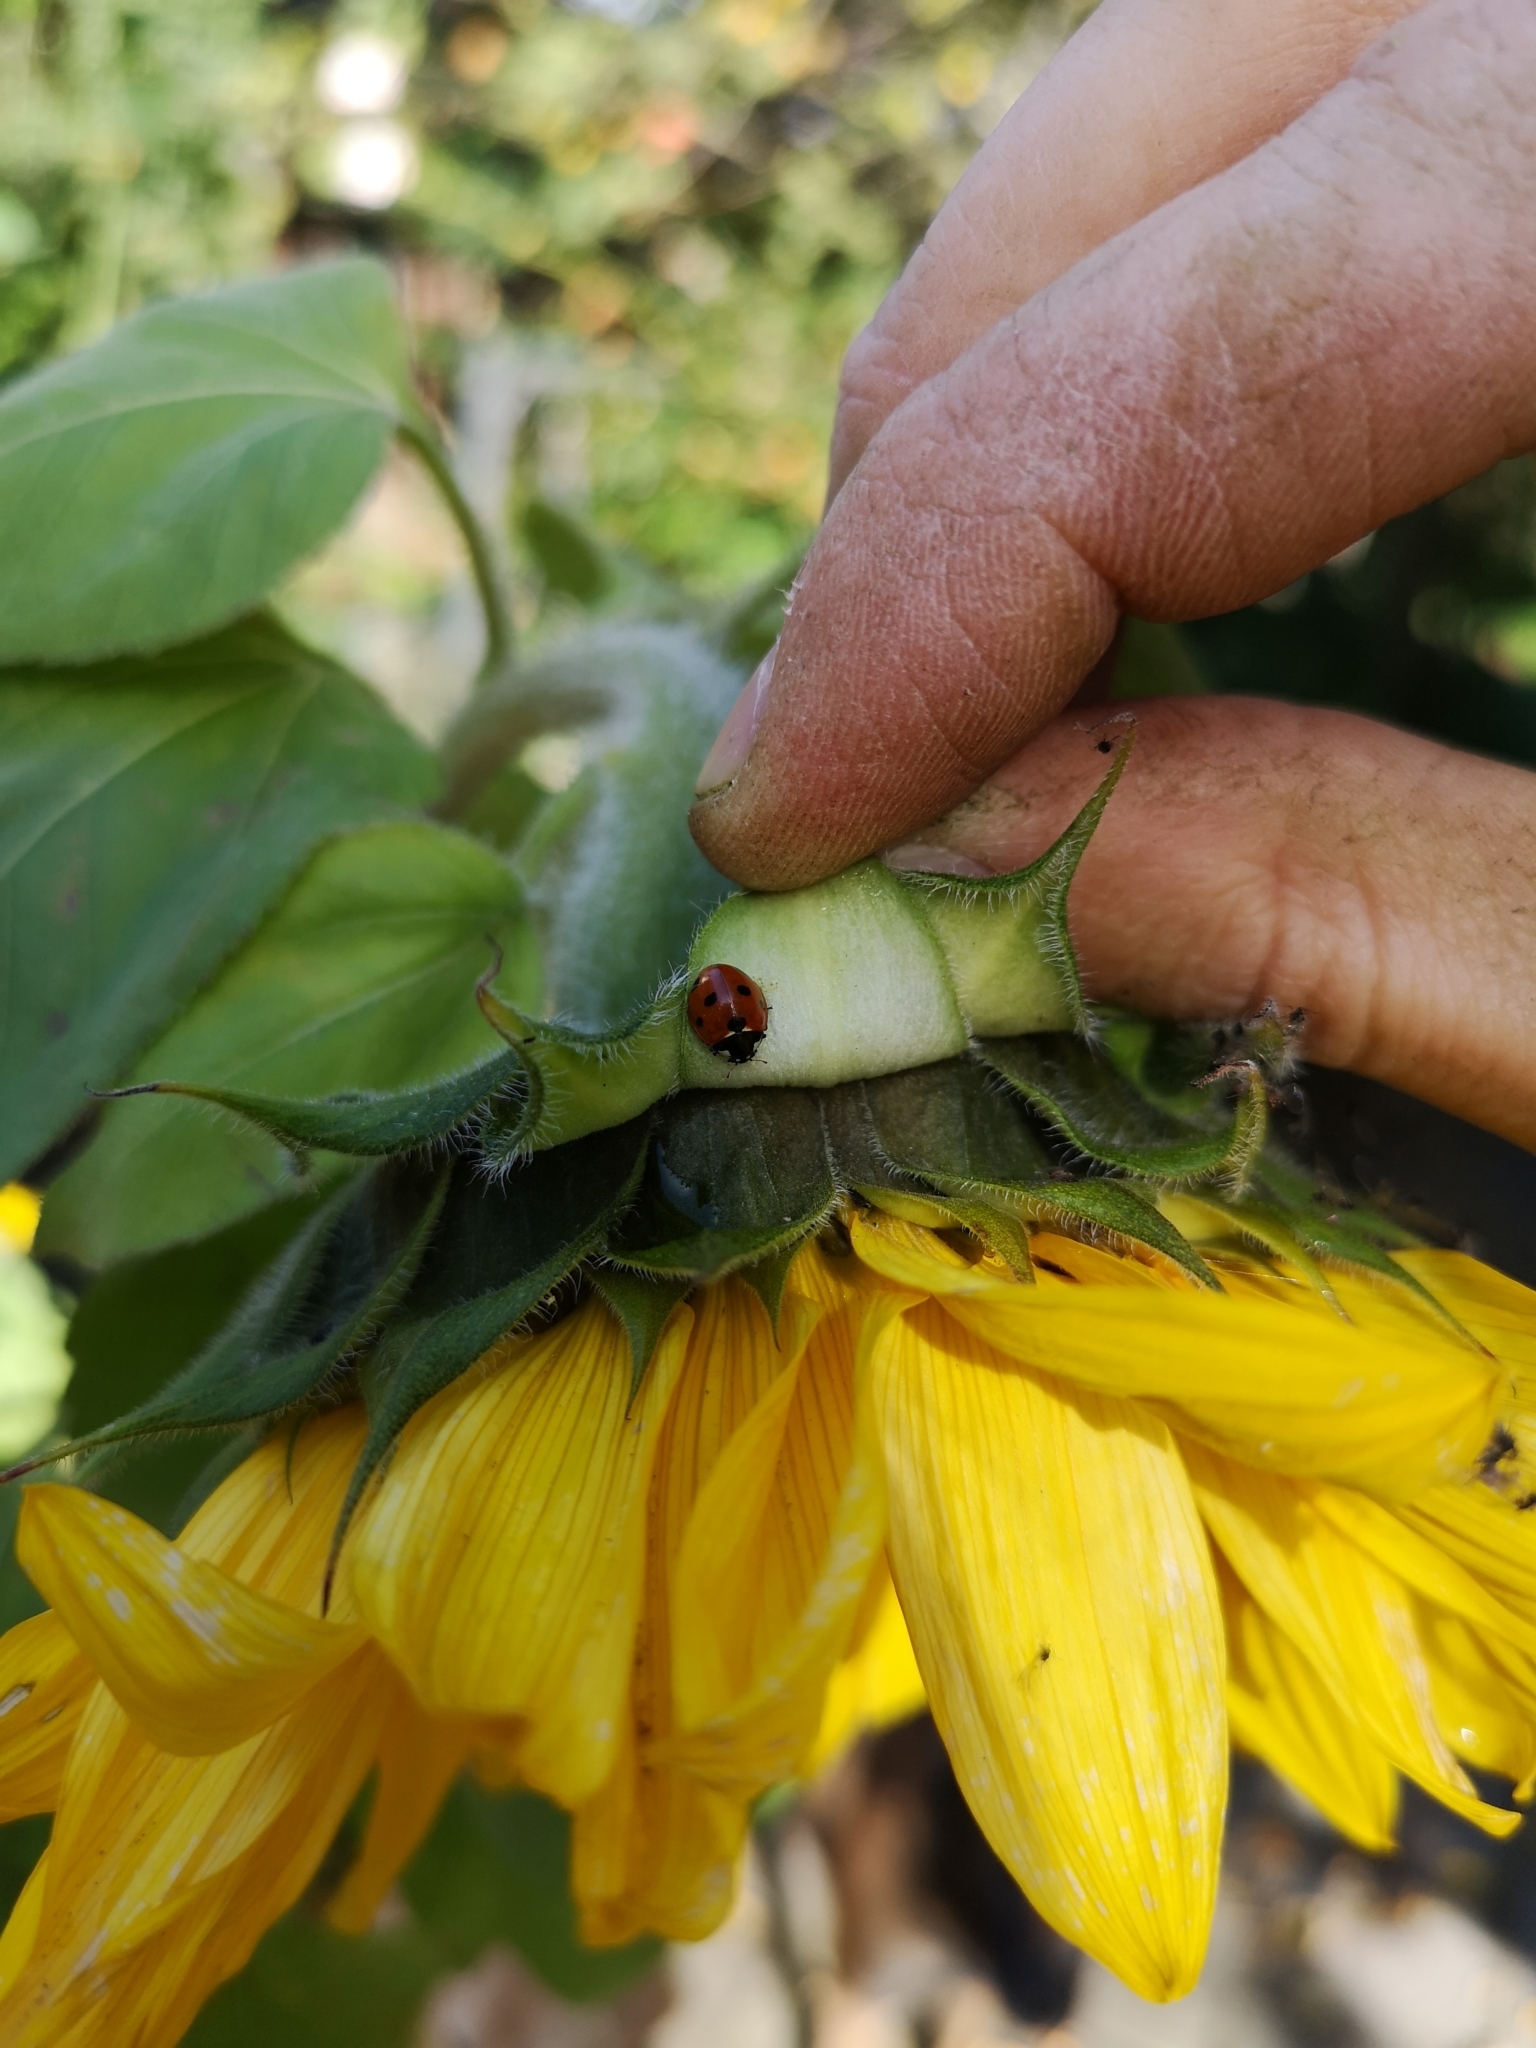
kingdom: Animalia
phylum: Arthropoda
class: Insecta
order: Coleoptera
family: Coccinellidae
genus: Coccinella
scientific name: Coccinella septempunctata
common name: Sevenspotted lady beetle
